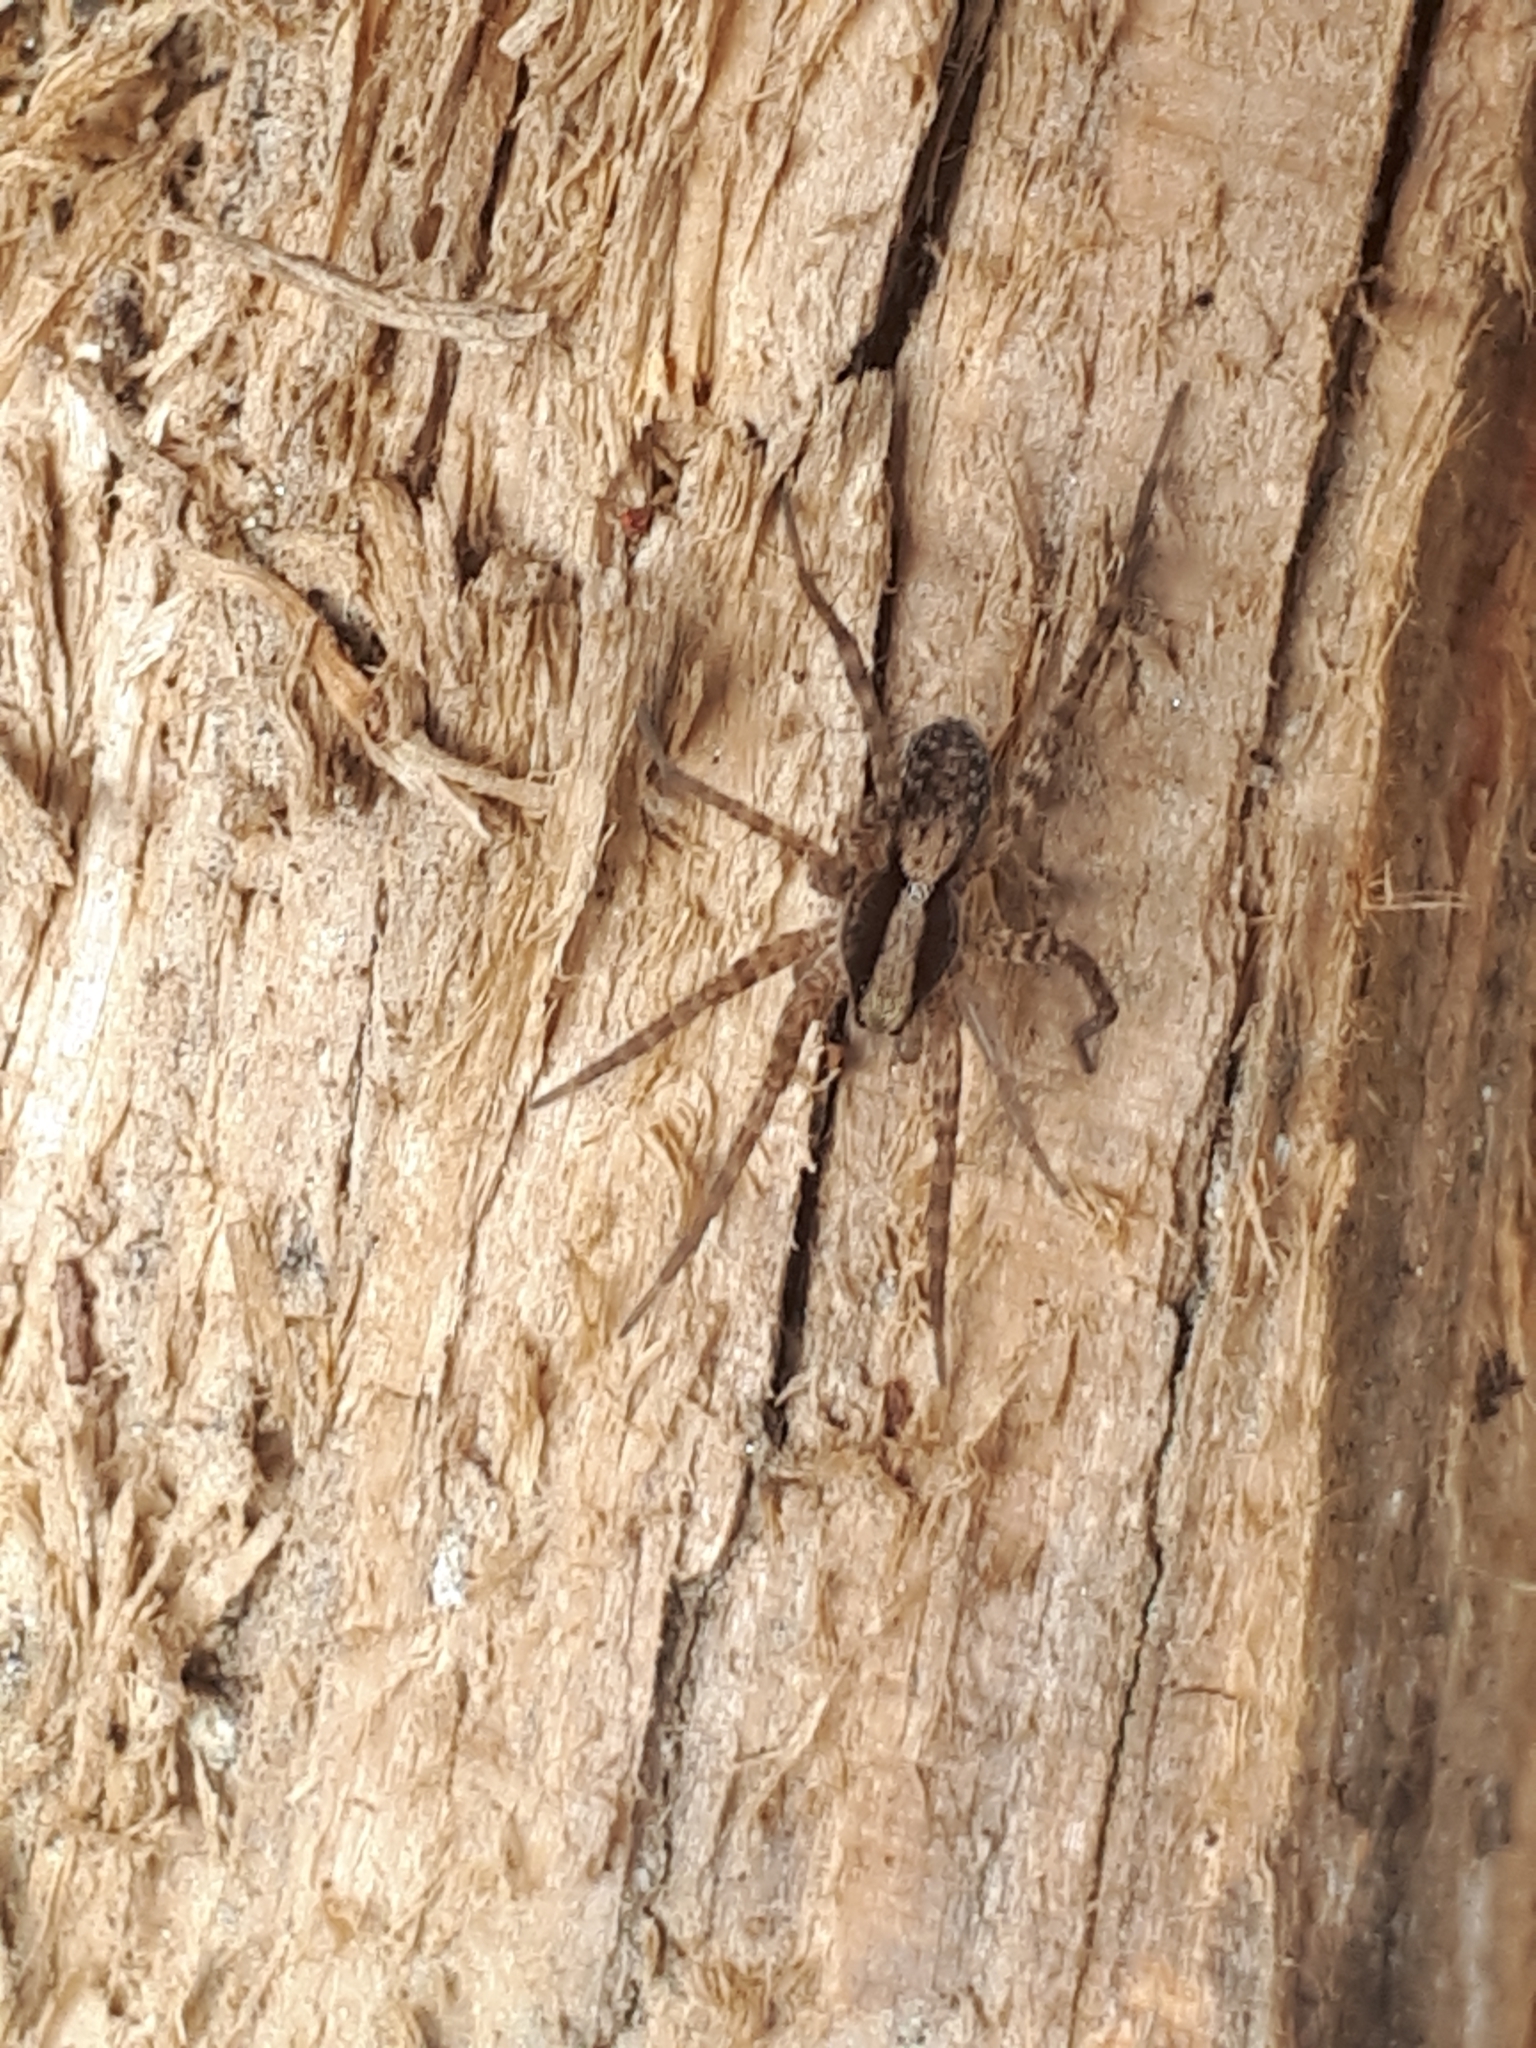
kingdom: Animalia
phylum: Arthropoda
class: Arachnida
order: Araneae
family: Lycosidae
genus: Pardosa
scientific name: Pardosa
